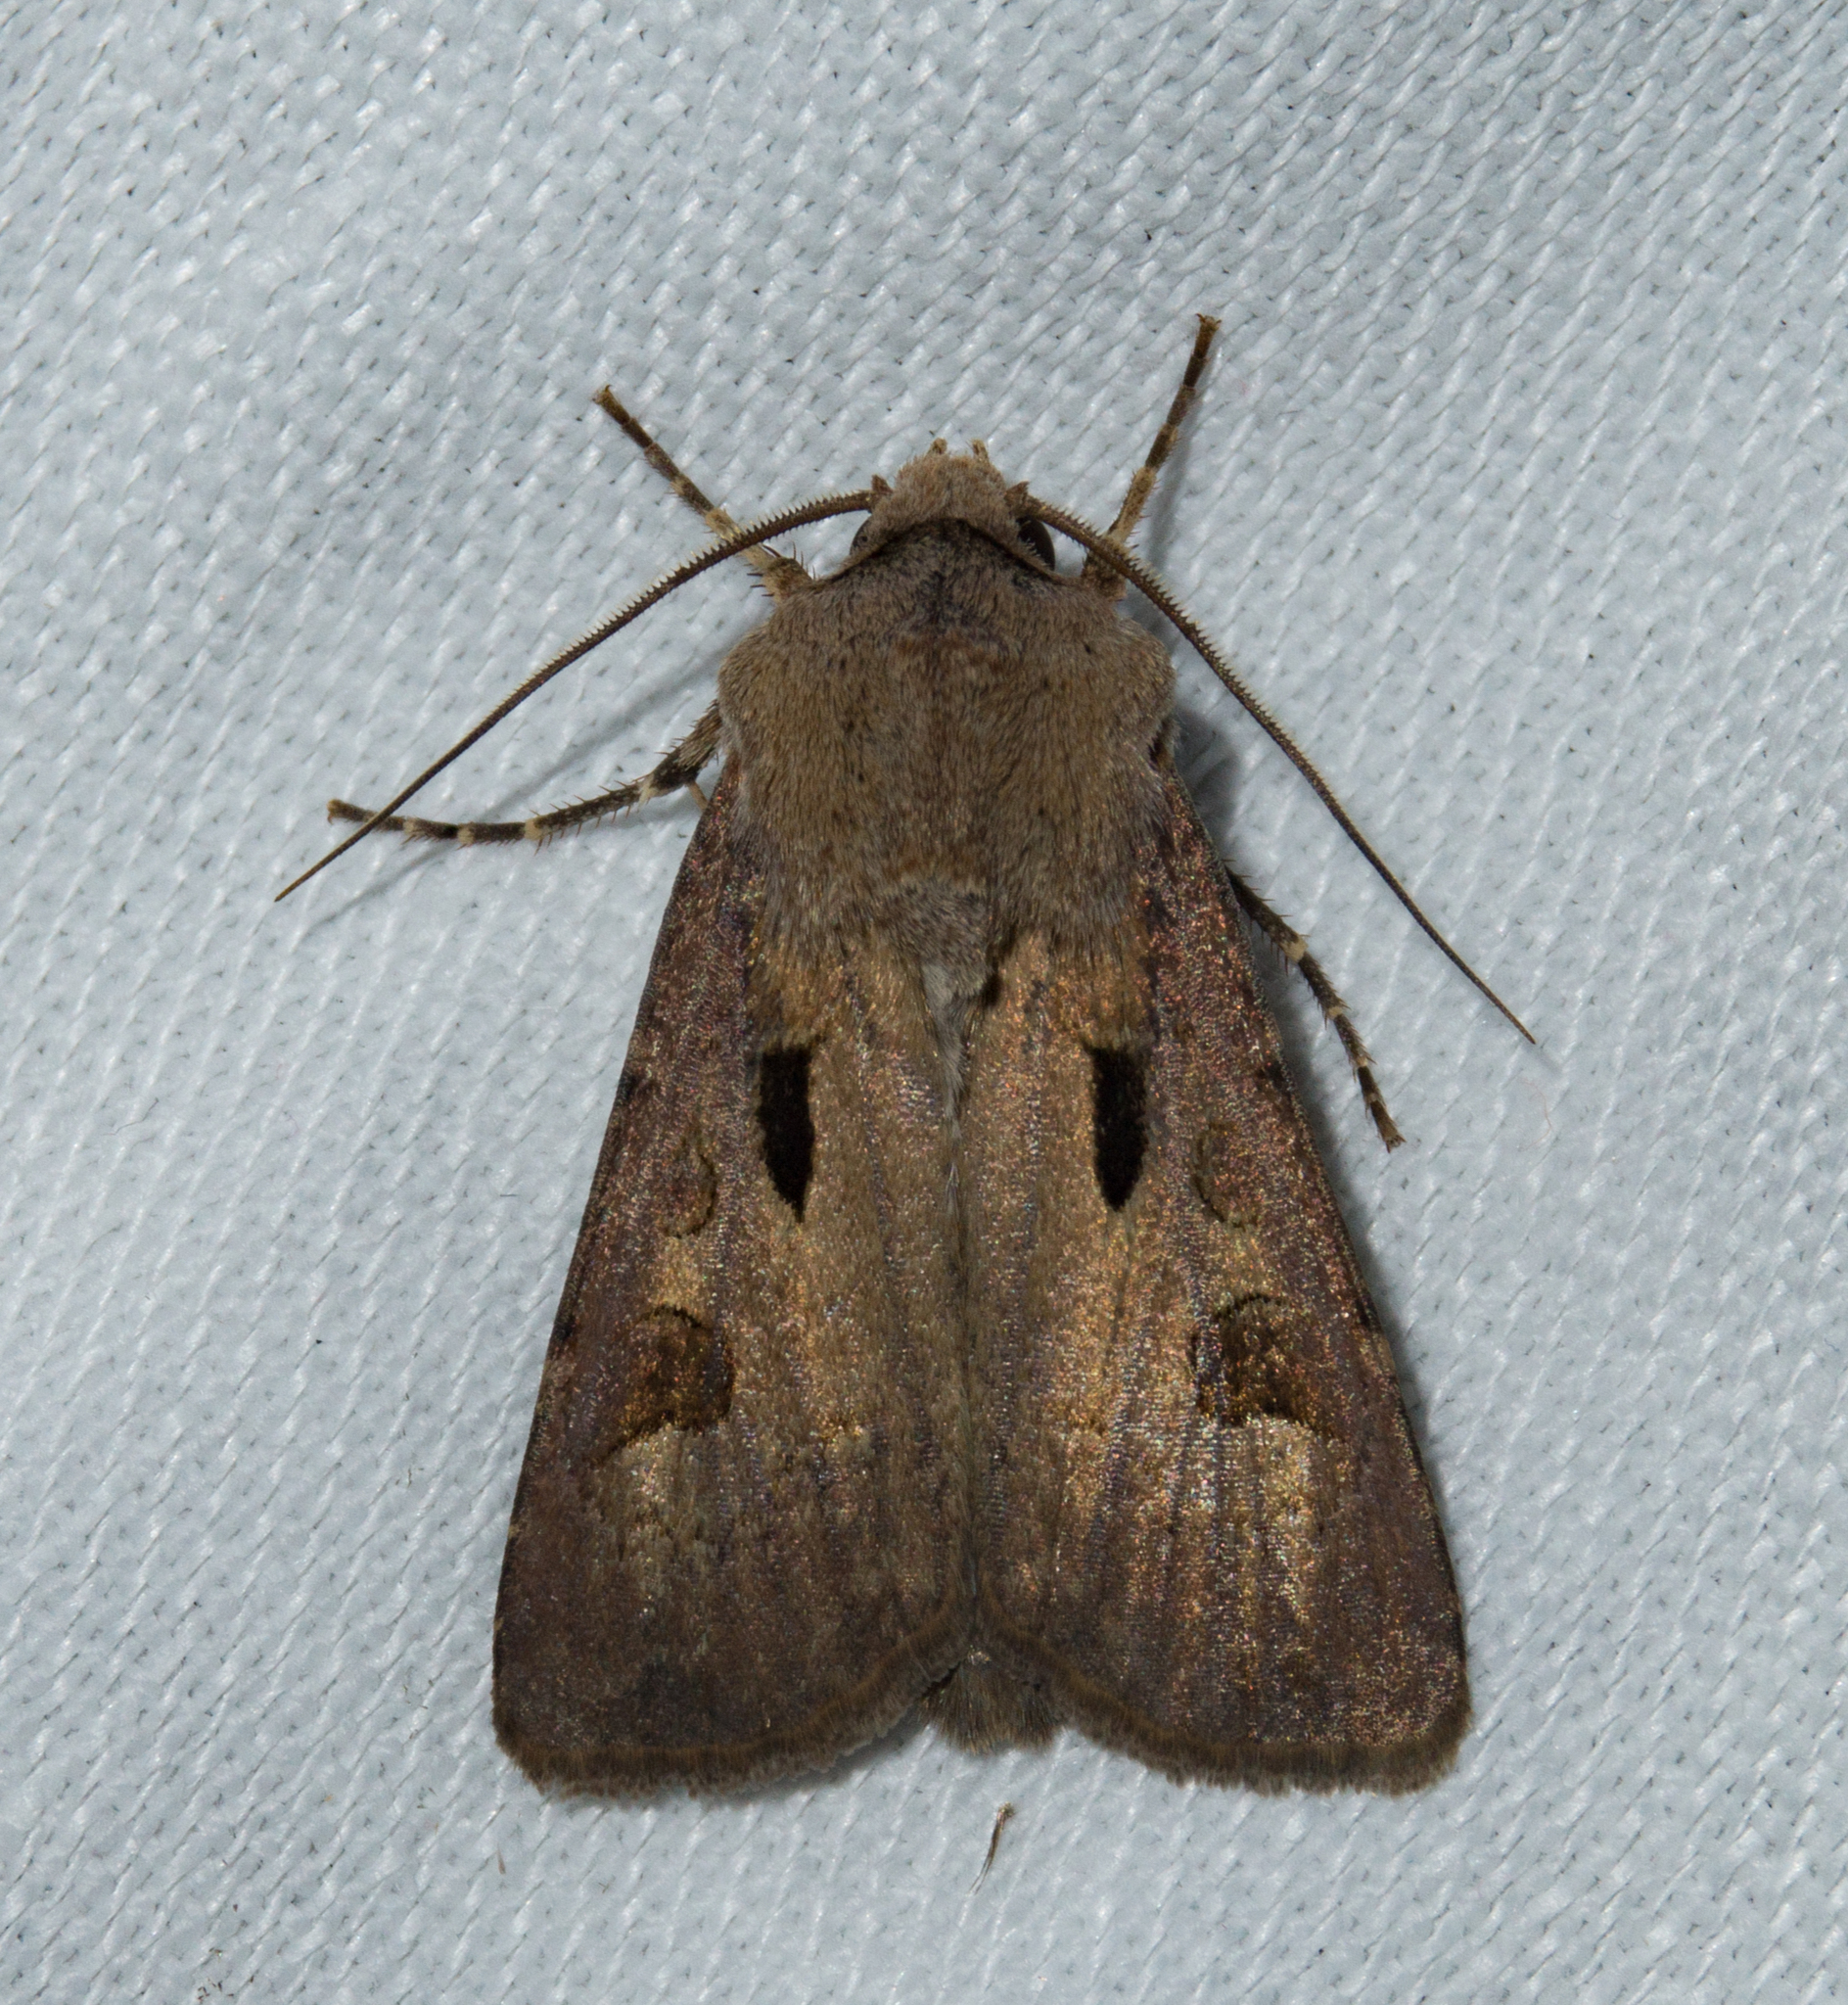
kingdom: Animalia
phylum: Arthropoda
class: Insecta
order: Lepidoptera
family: Noctuidae
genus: Agrotis
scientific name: Agrotis exclamationis
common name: Heart and dart
